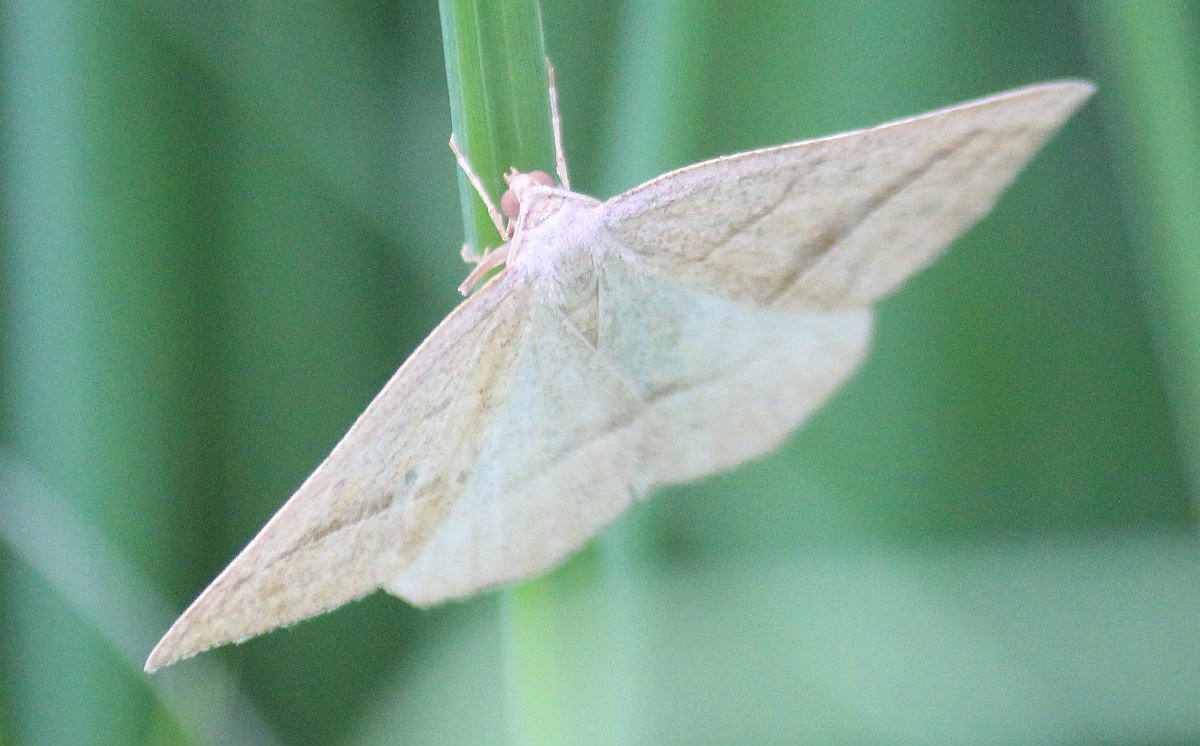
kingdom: Animalia
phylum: Arthropoda
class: Insecta
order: Lepidoptera
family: Pterophoridae
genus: Pterophorus
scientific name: Pterophorus Petrophora chlorosata
